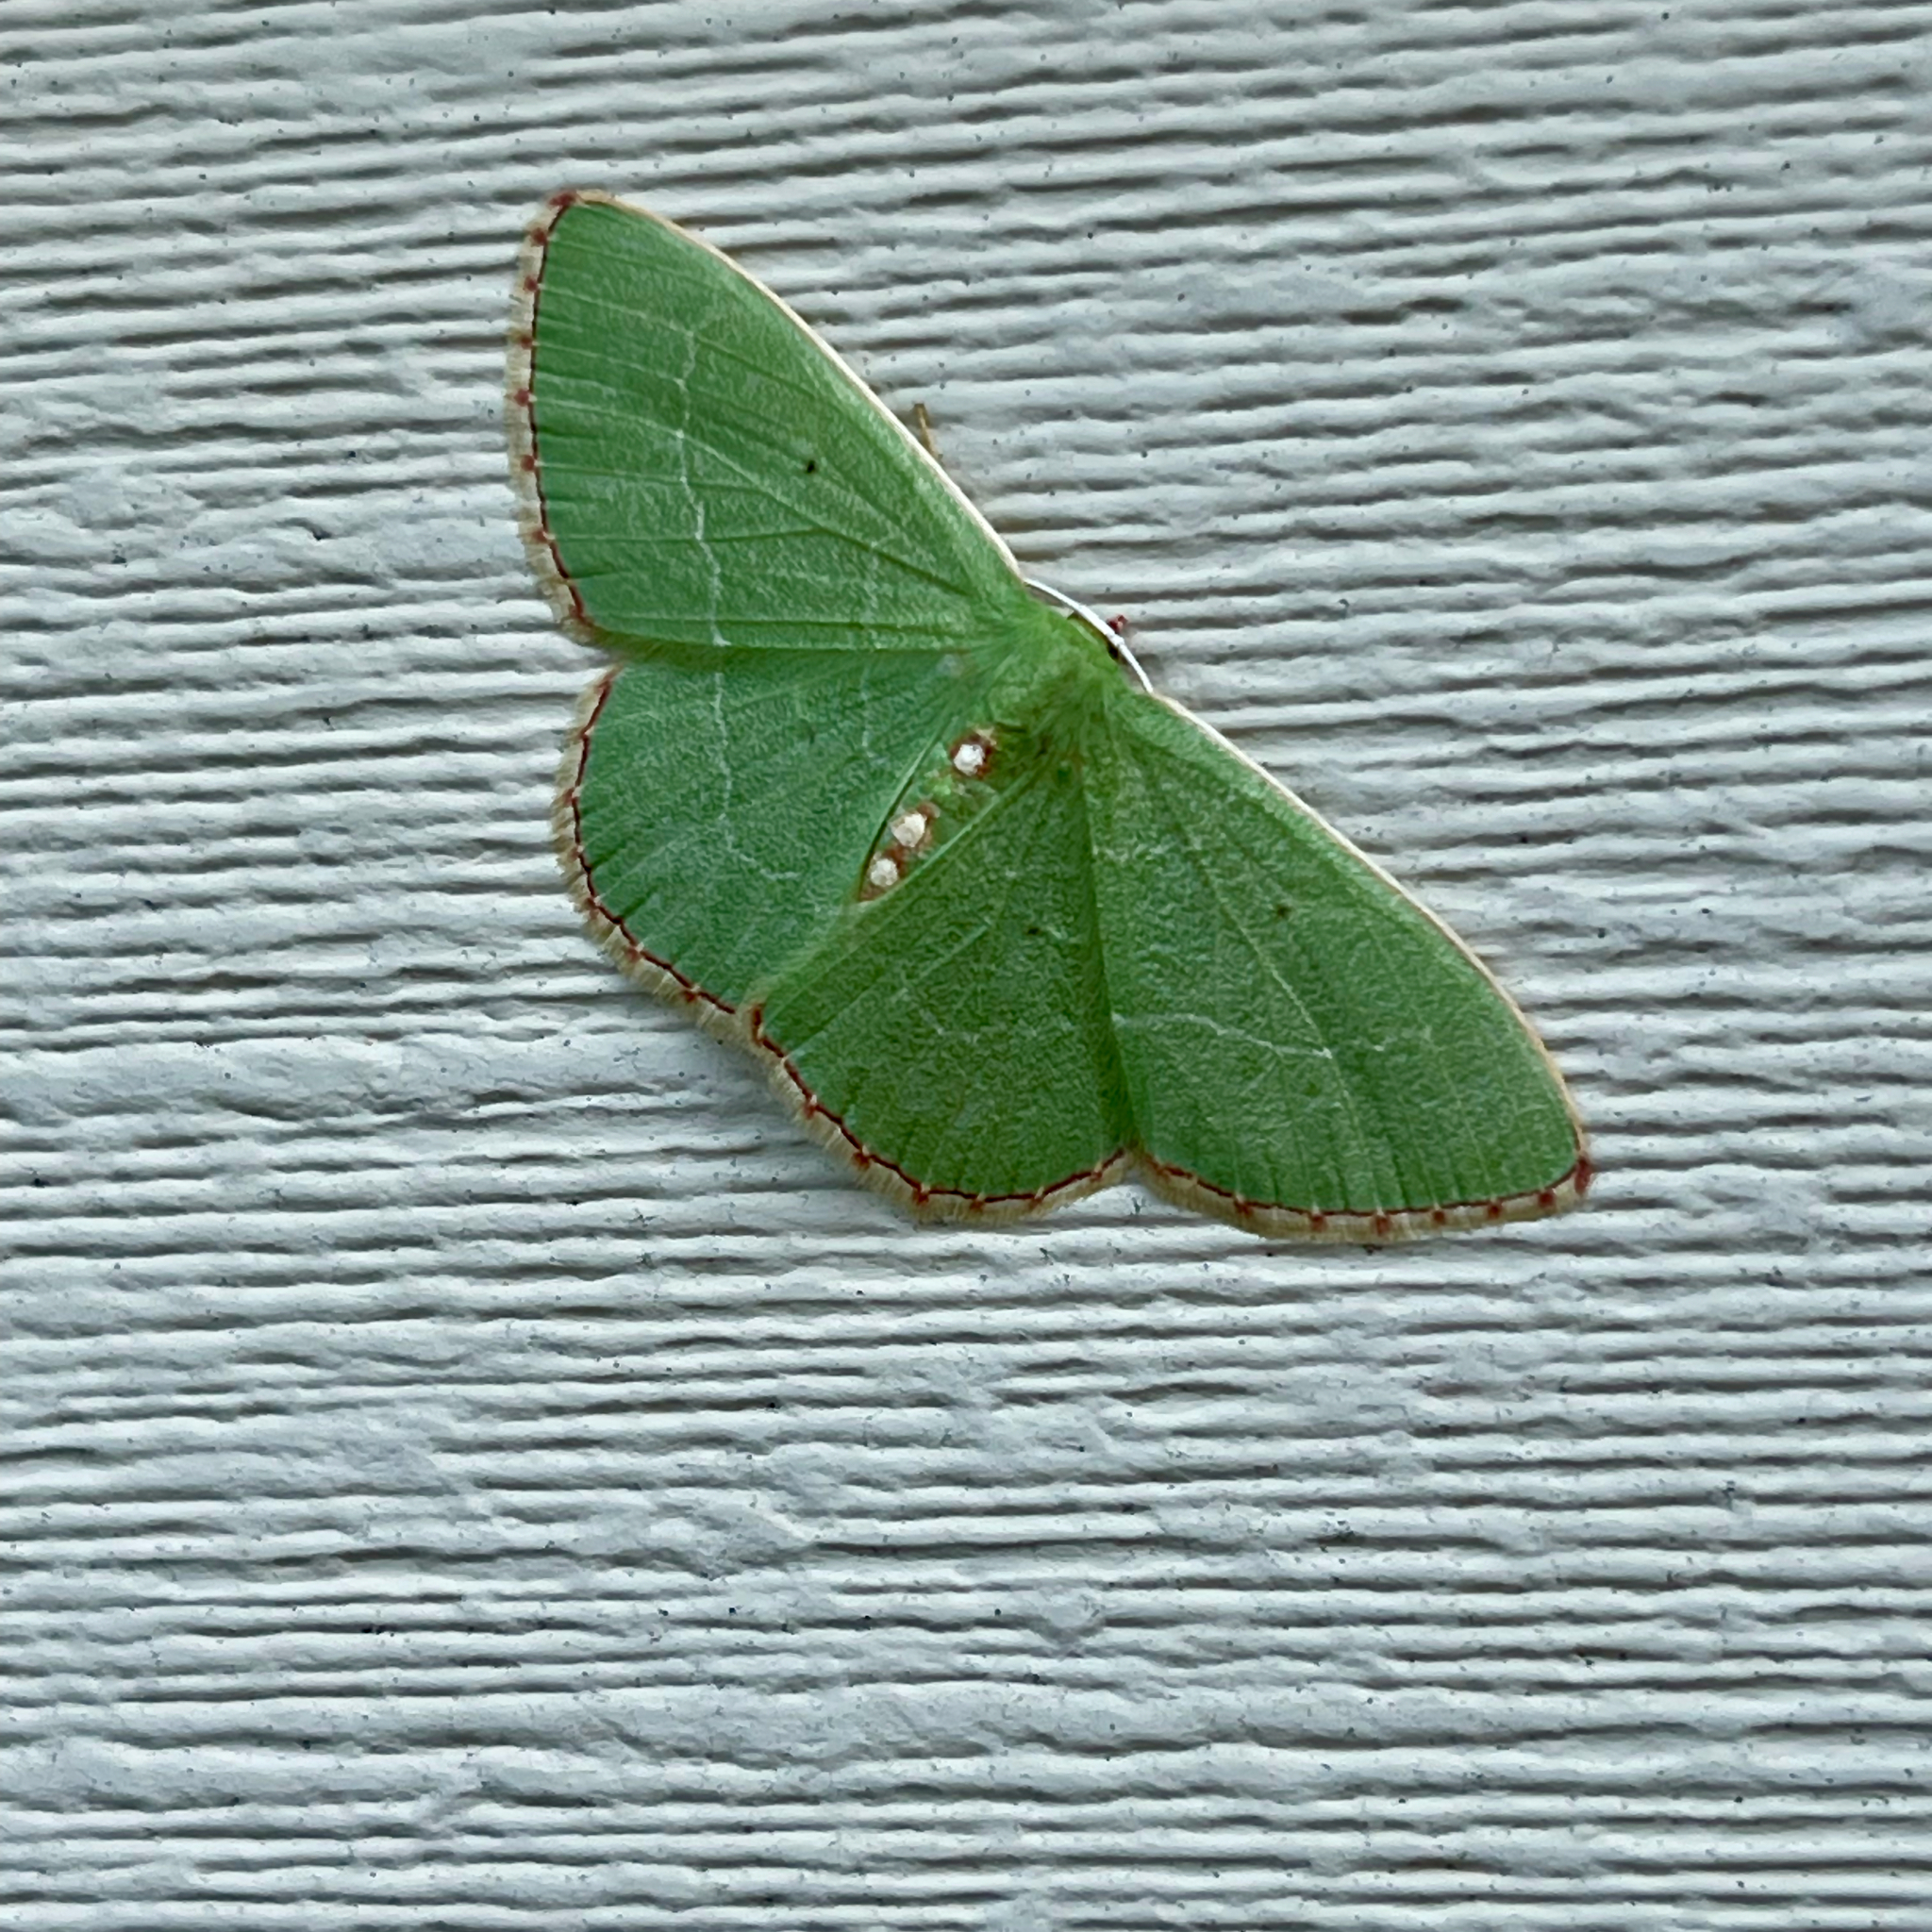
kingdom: Animalia
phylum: Arthropoda
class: Insecta
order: Lepidoptera
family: Geometridae
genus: Nemoria
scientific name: Nemoria lixaria
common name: Red-bordered emerald
